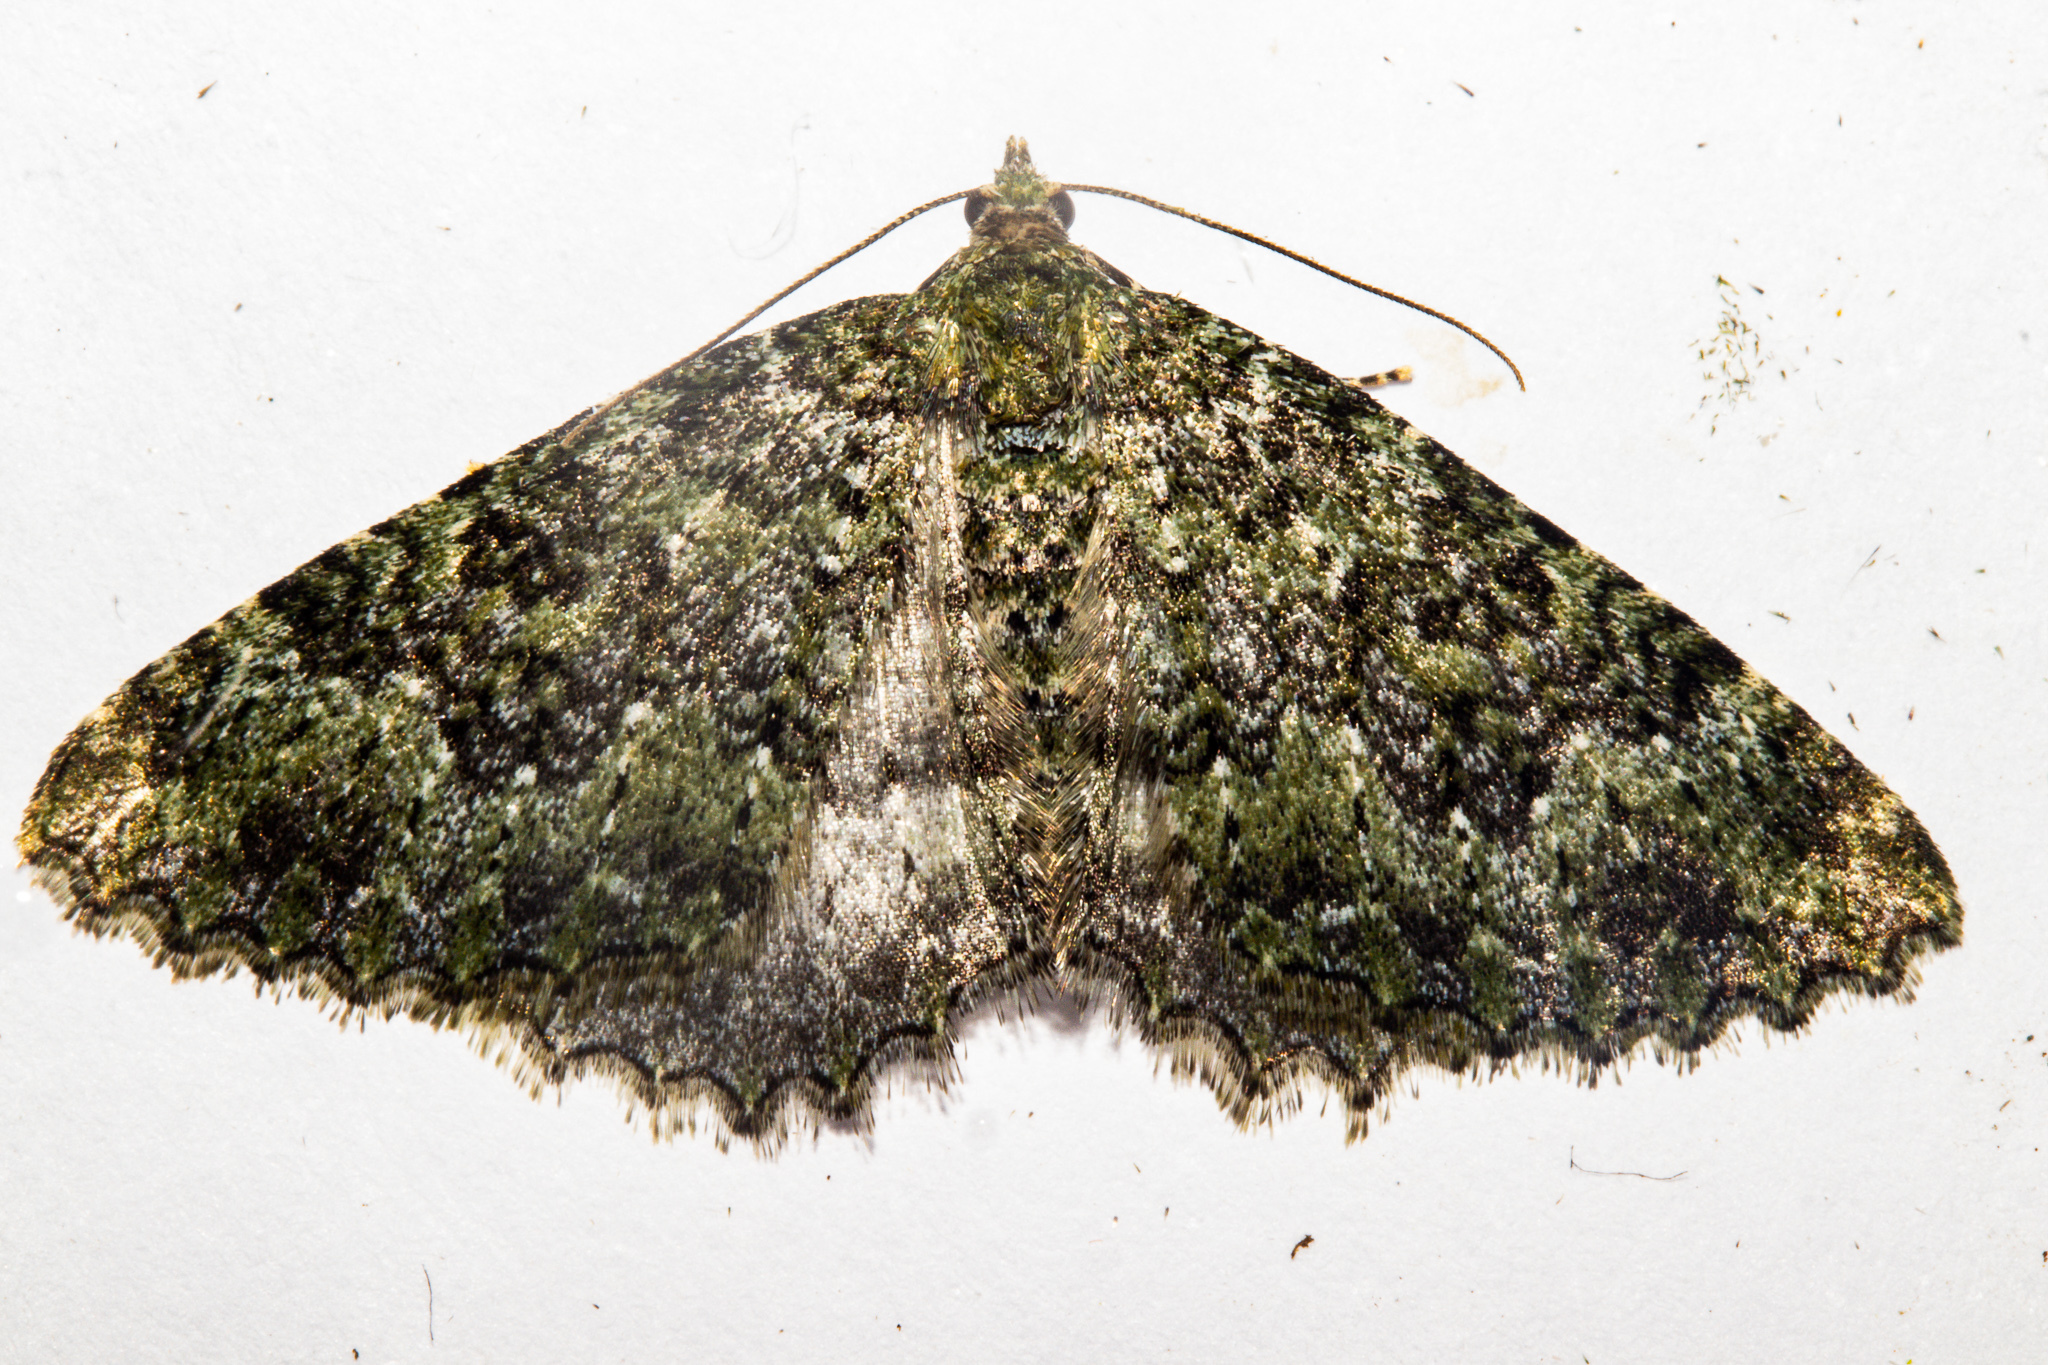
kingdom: Animalia
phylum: Arthropoda
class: Insecta
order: Lepidoptera
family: Geometridae
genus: Austrocidaria
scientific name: Austrocidaria umbrosa
